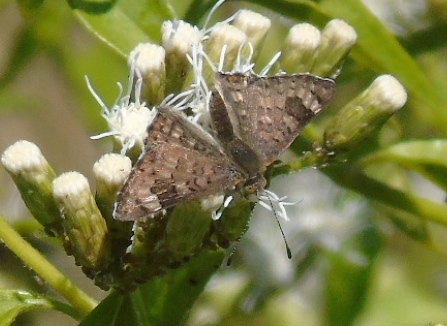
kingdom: Animalia
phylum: Arthropoda
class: Insecta
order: Lepidoptera
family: Riodinidae
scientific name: Riodinidae
